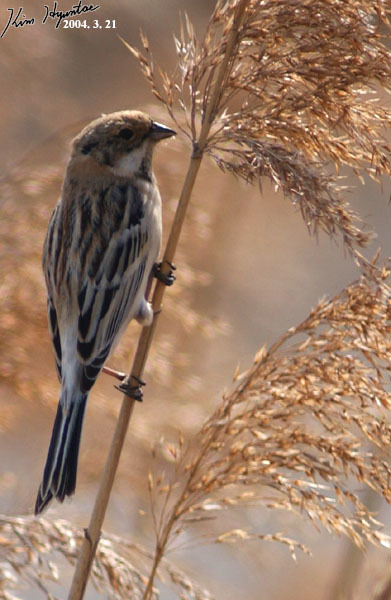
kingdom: Animalia
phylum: Chordata
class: Aves
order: Passeriformes
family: Emberizidae
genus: Emberiza
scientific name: Emberiza pallasi
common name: Pallas's reed bunting
